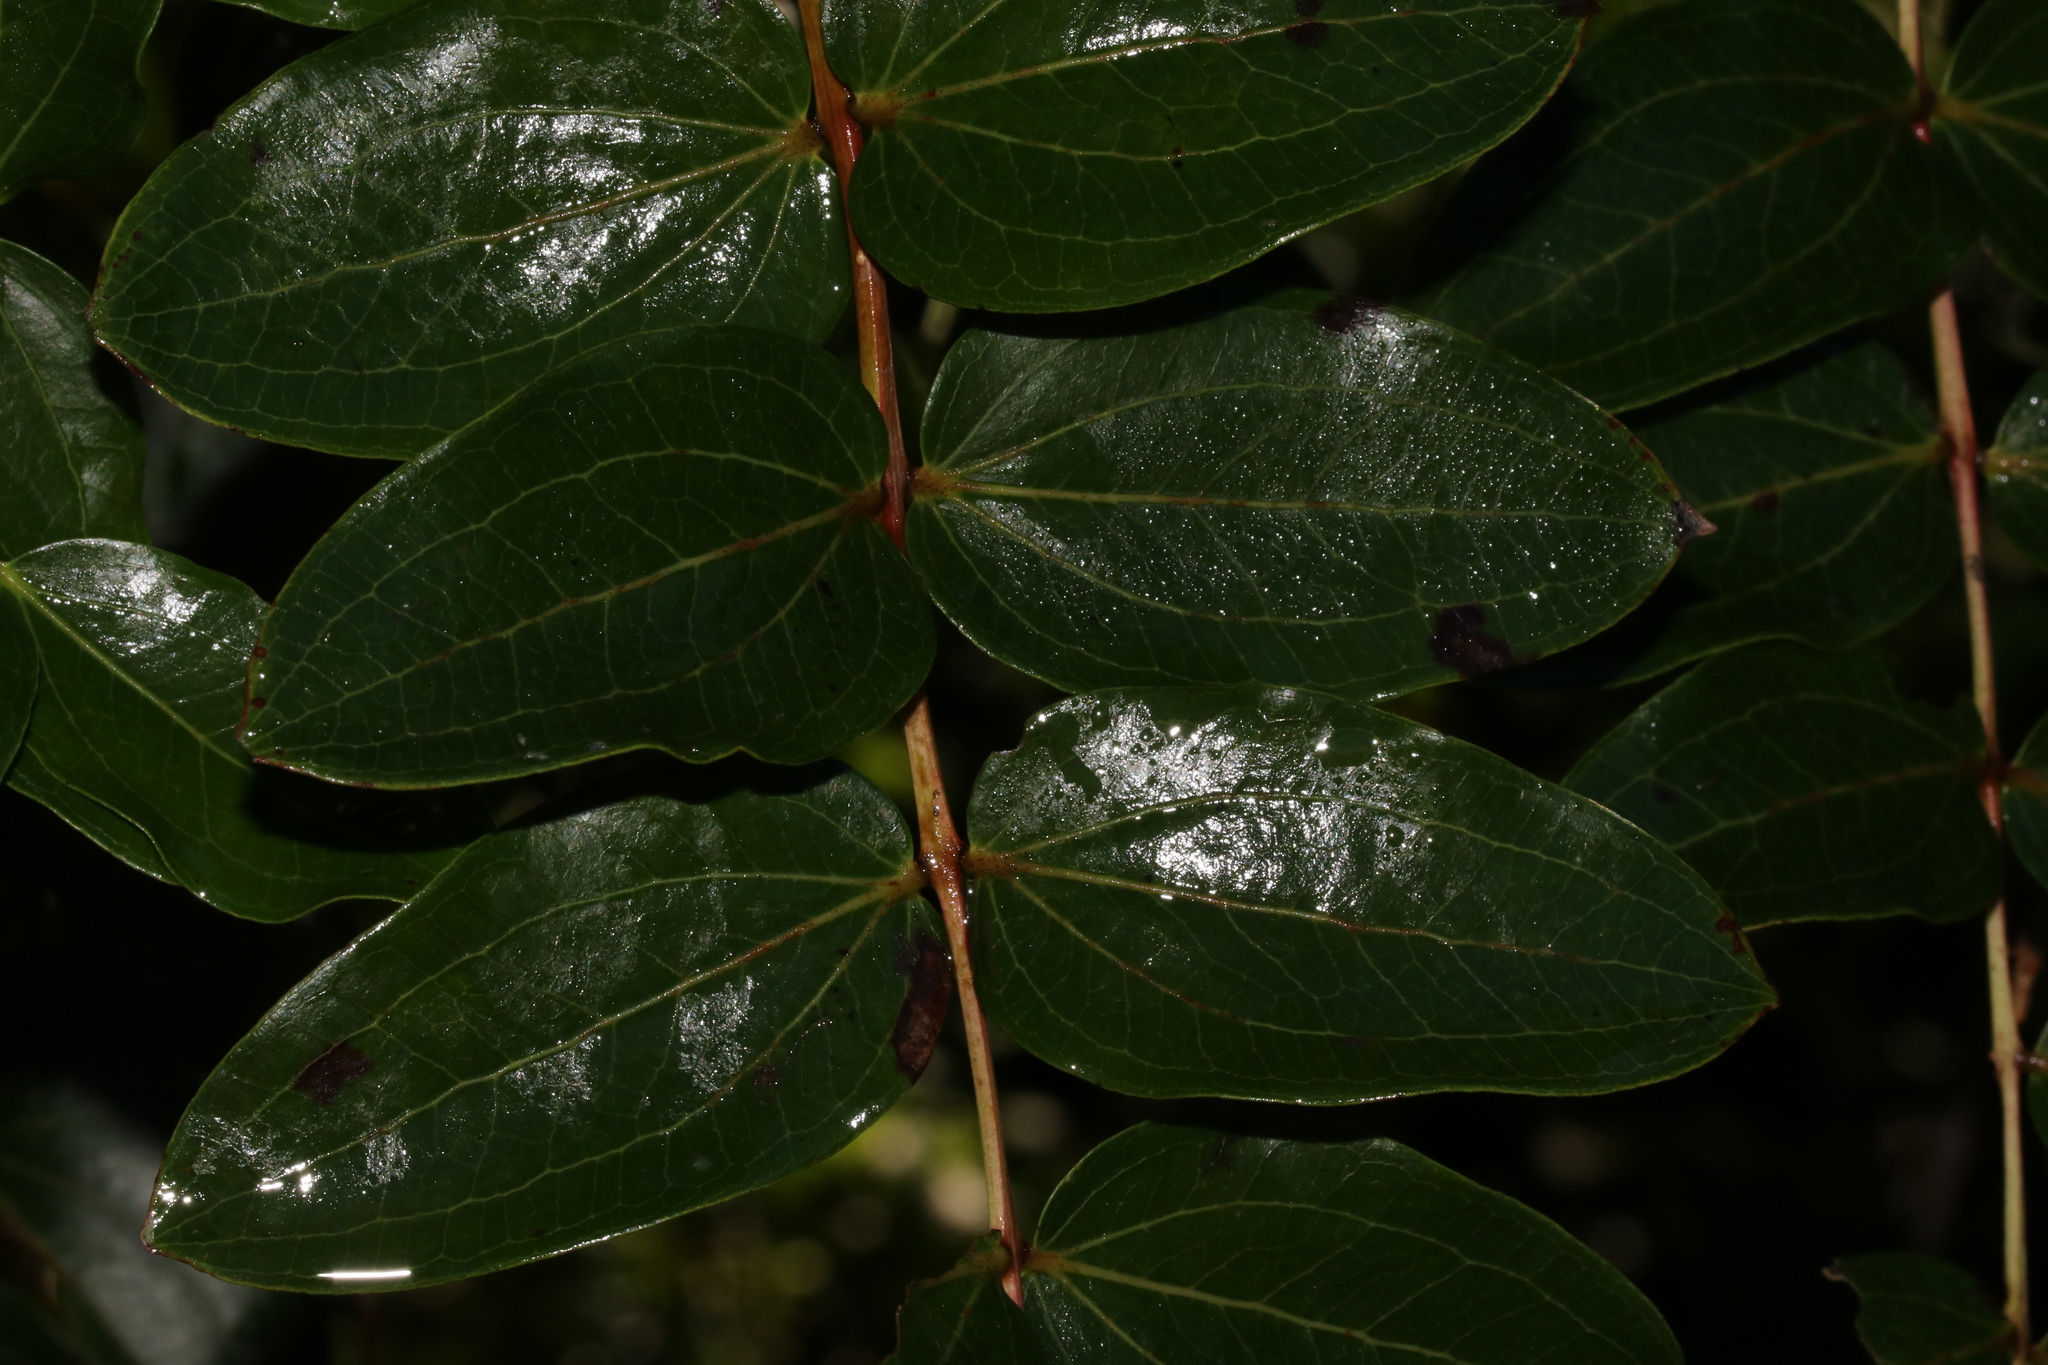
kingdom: Plantae
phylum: Tracheophyta
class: Magnoliopsida
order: Cucurbitales
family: Coriariaceae
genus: Coriaria
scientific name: Coriaria arborea
